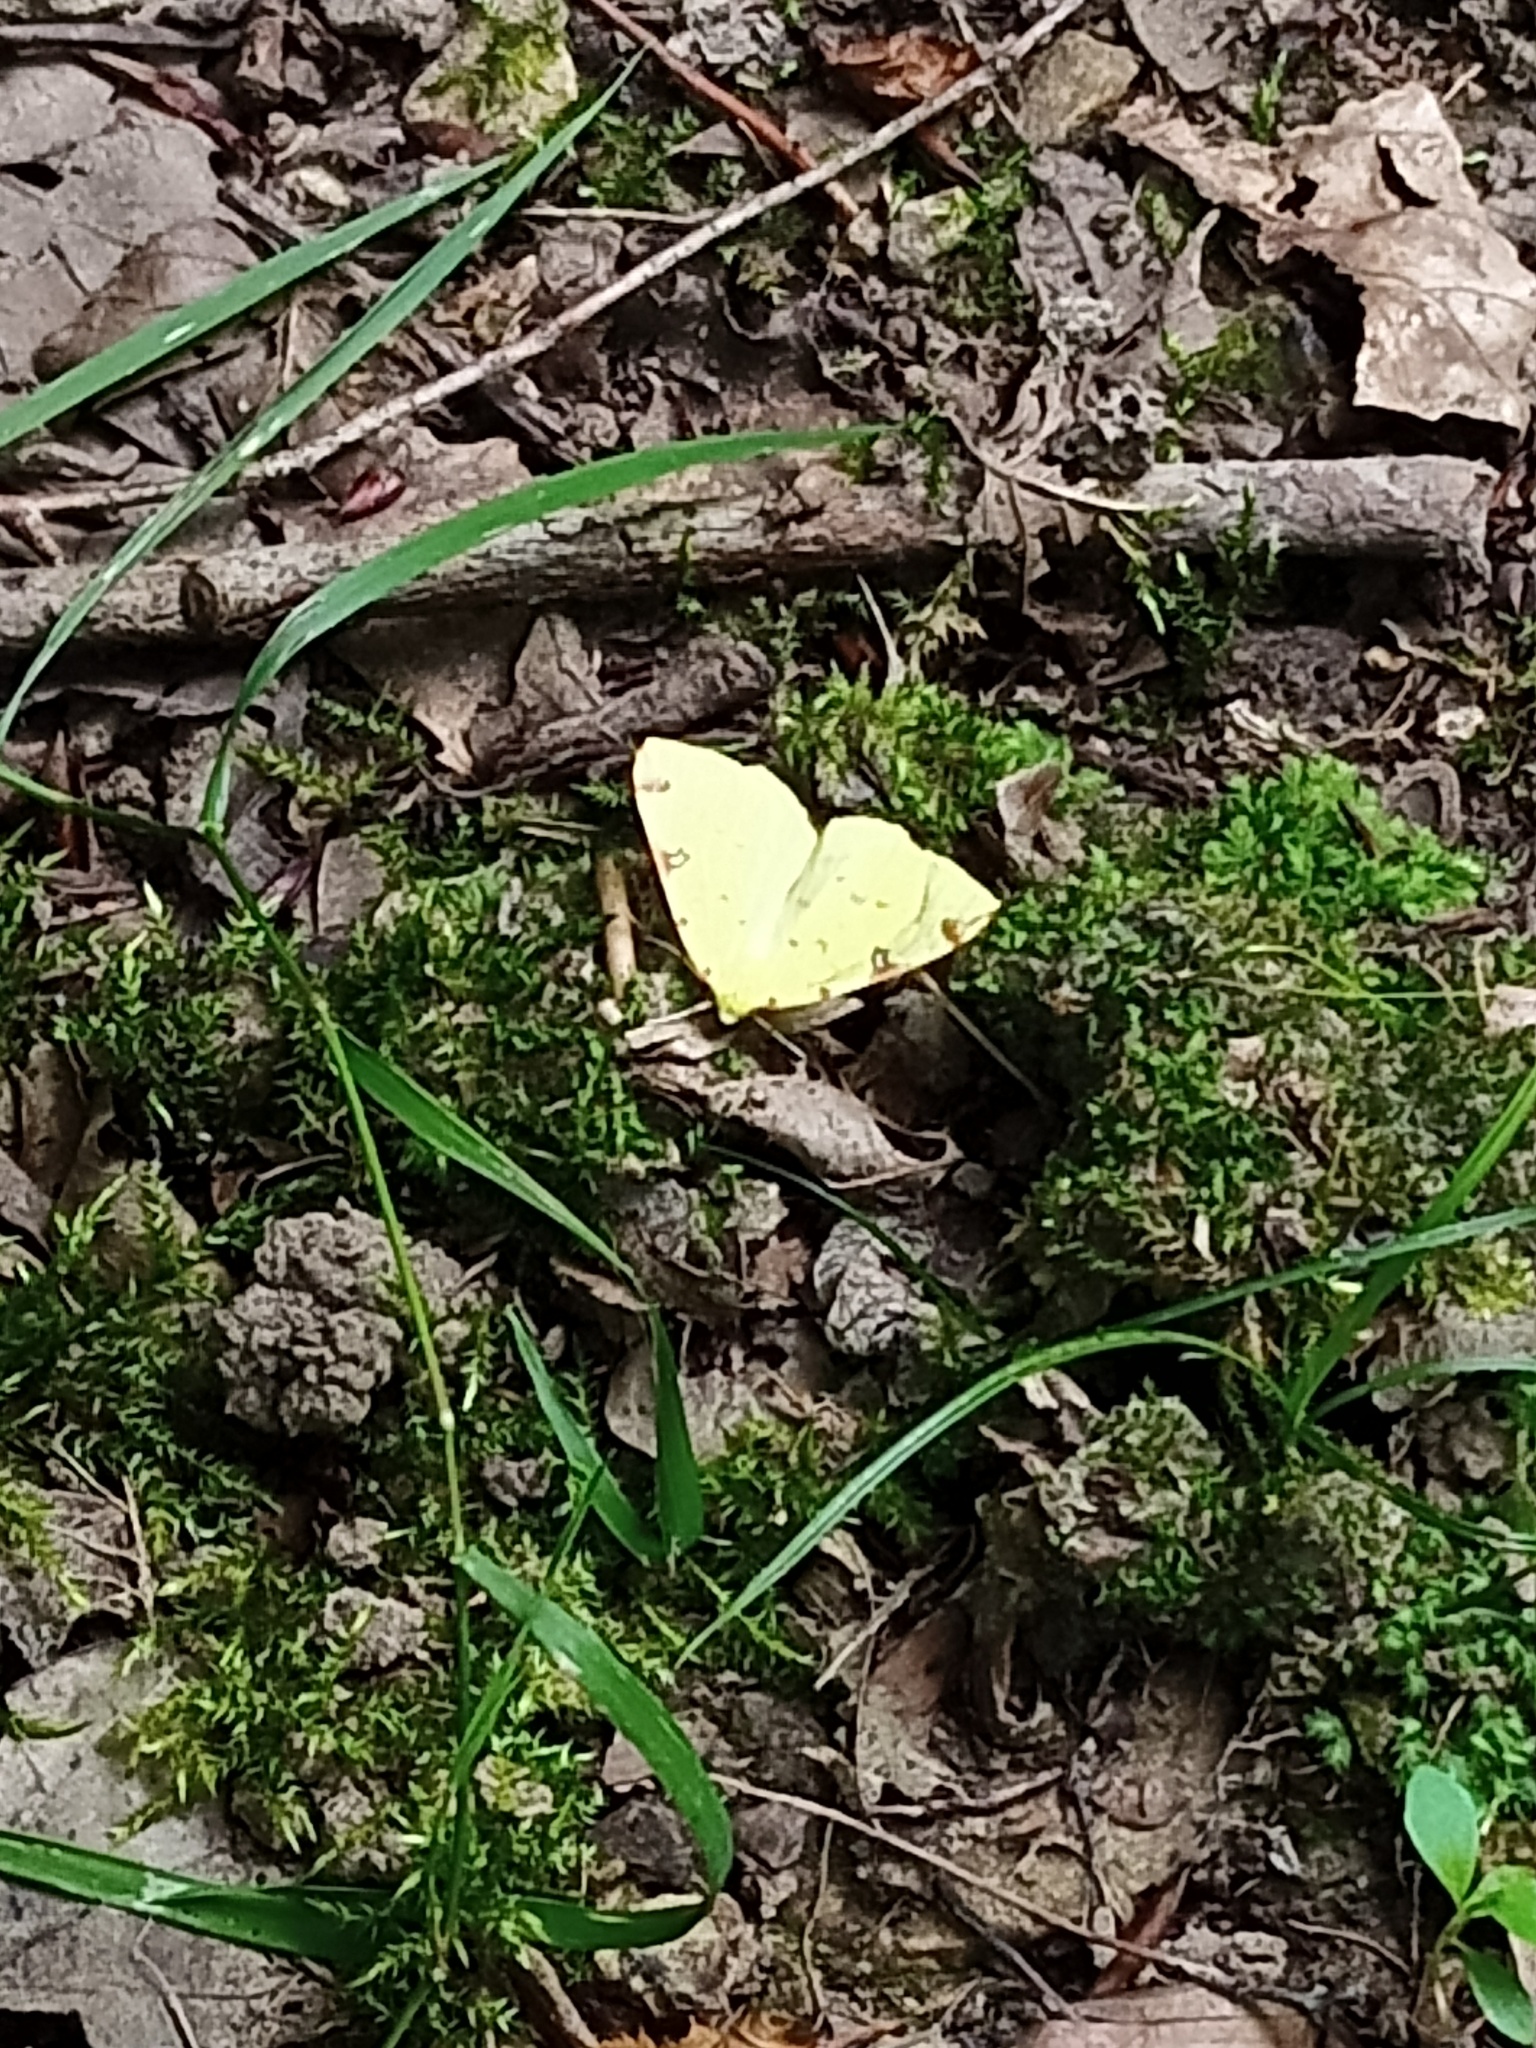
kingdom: Animalia
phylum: Arthropoda
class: Insecta
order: Lepidoptera
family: Geometridae
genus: Opisthograptis
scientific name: Opisthograptis luteolata
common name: Brimstone moth
